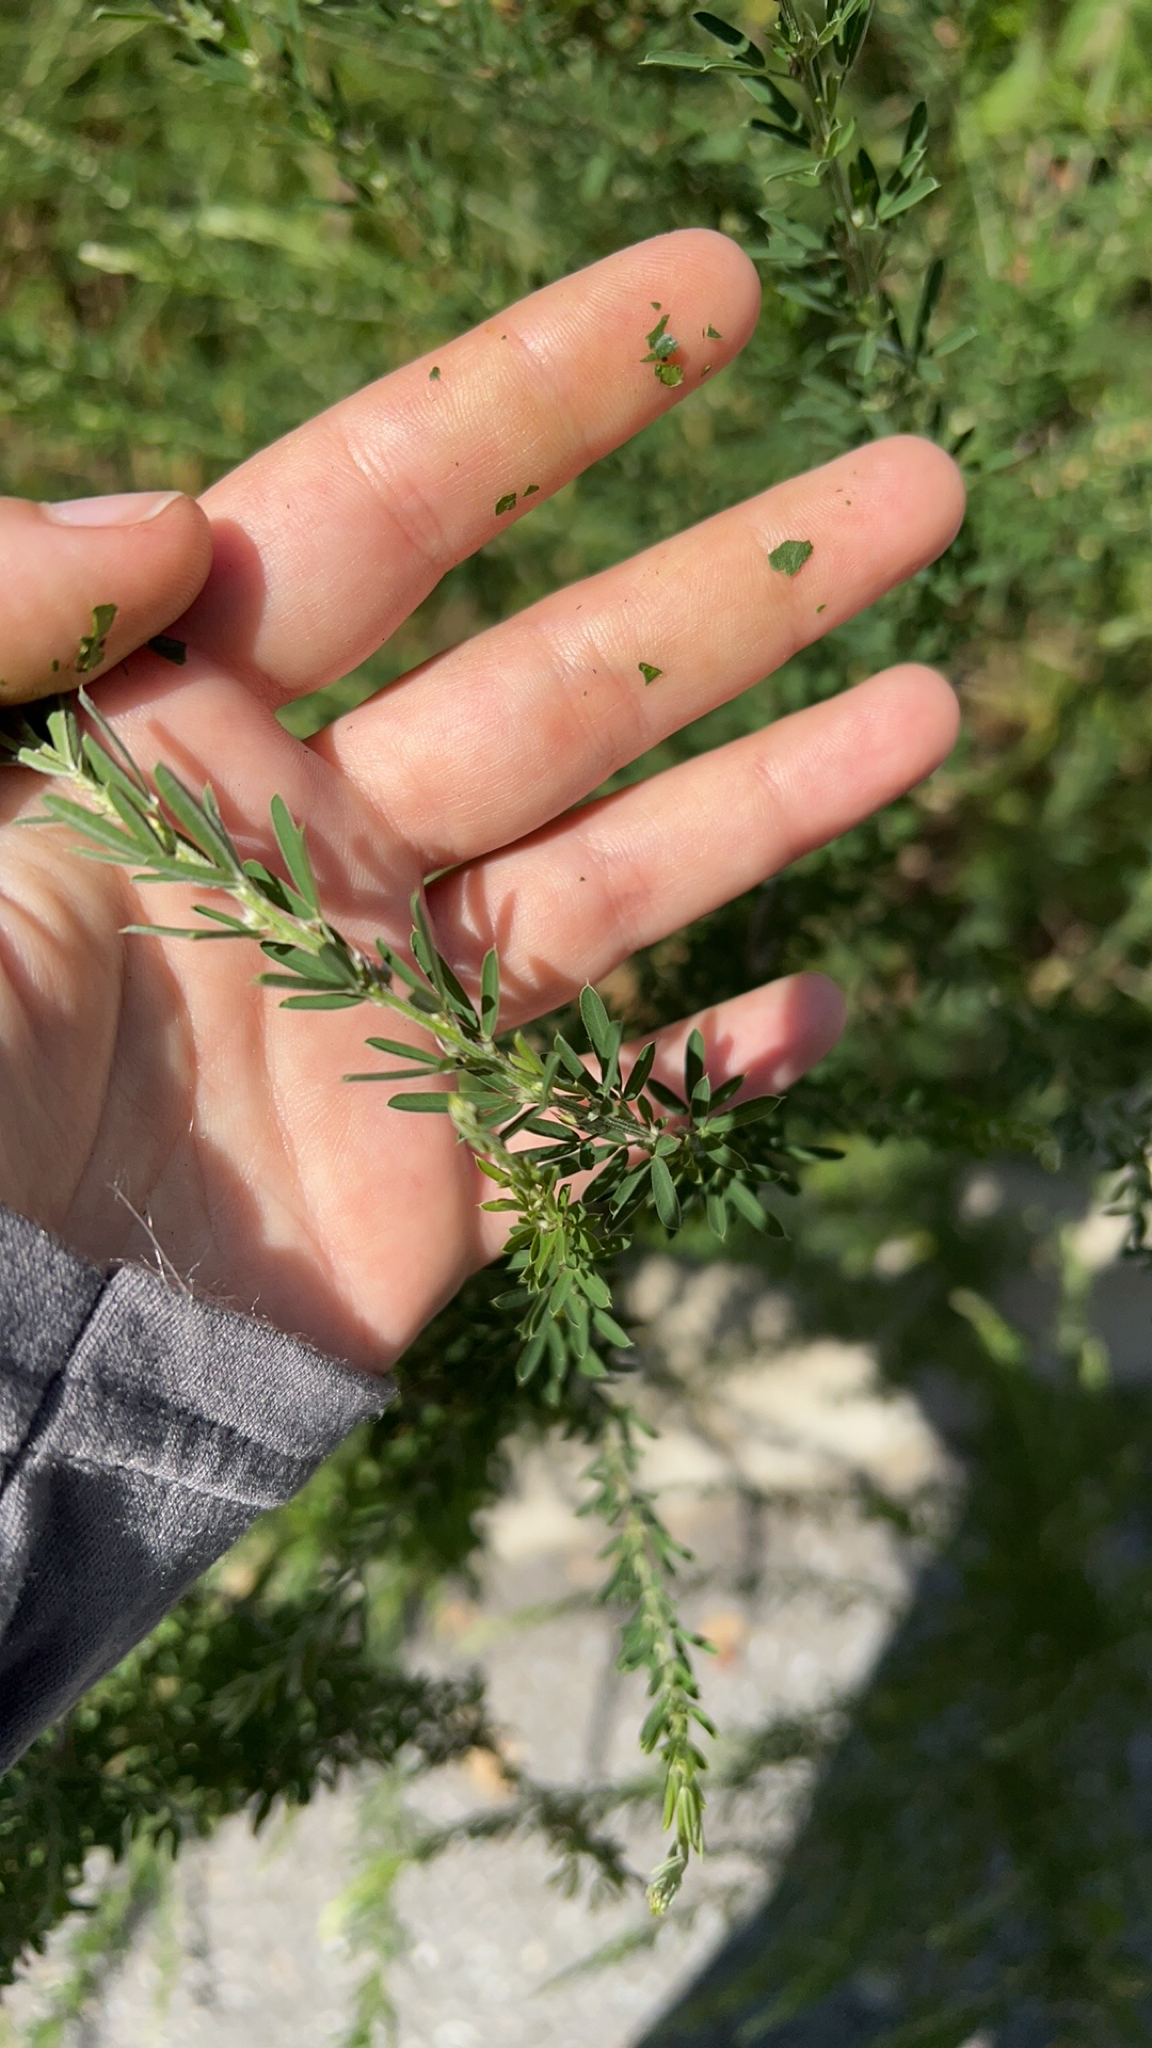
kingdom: Plantae
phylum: Tracheophyta
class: Magnoliopsida
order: Fabales
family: Fabaceae
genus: Lespedeza
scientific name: Lespedeza cuneata
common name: Chinese bush-clover
